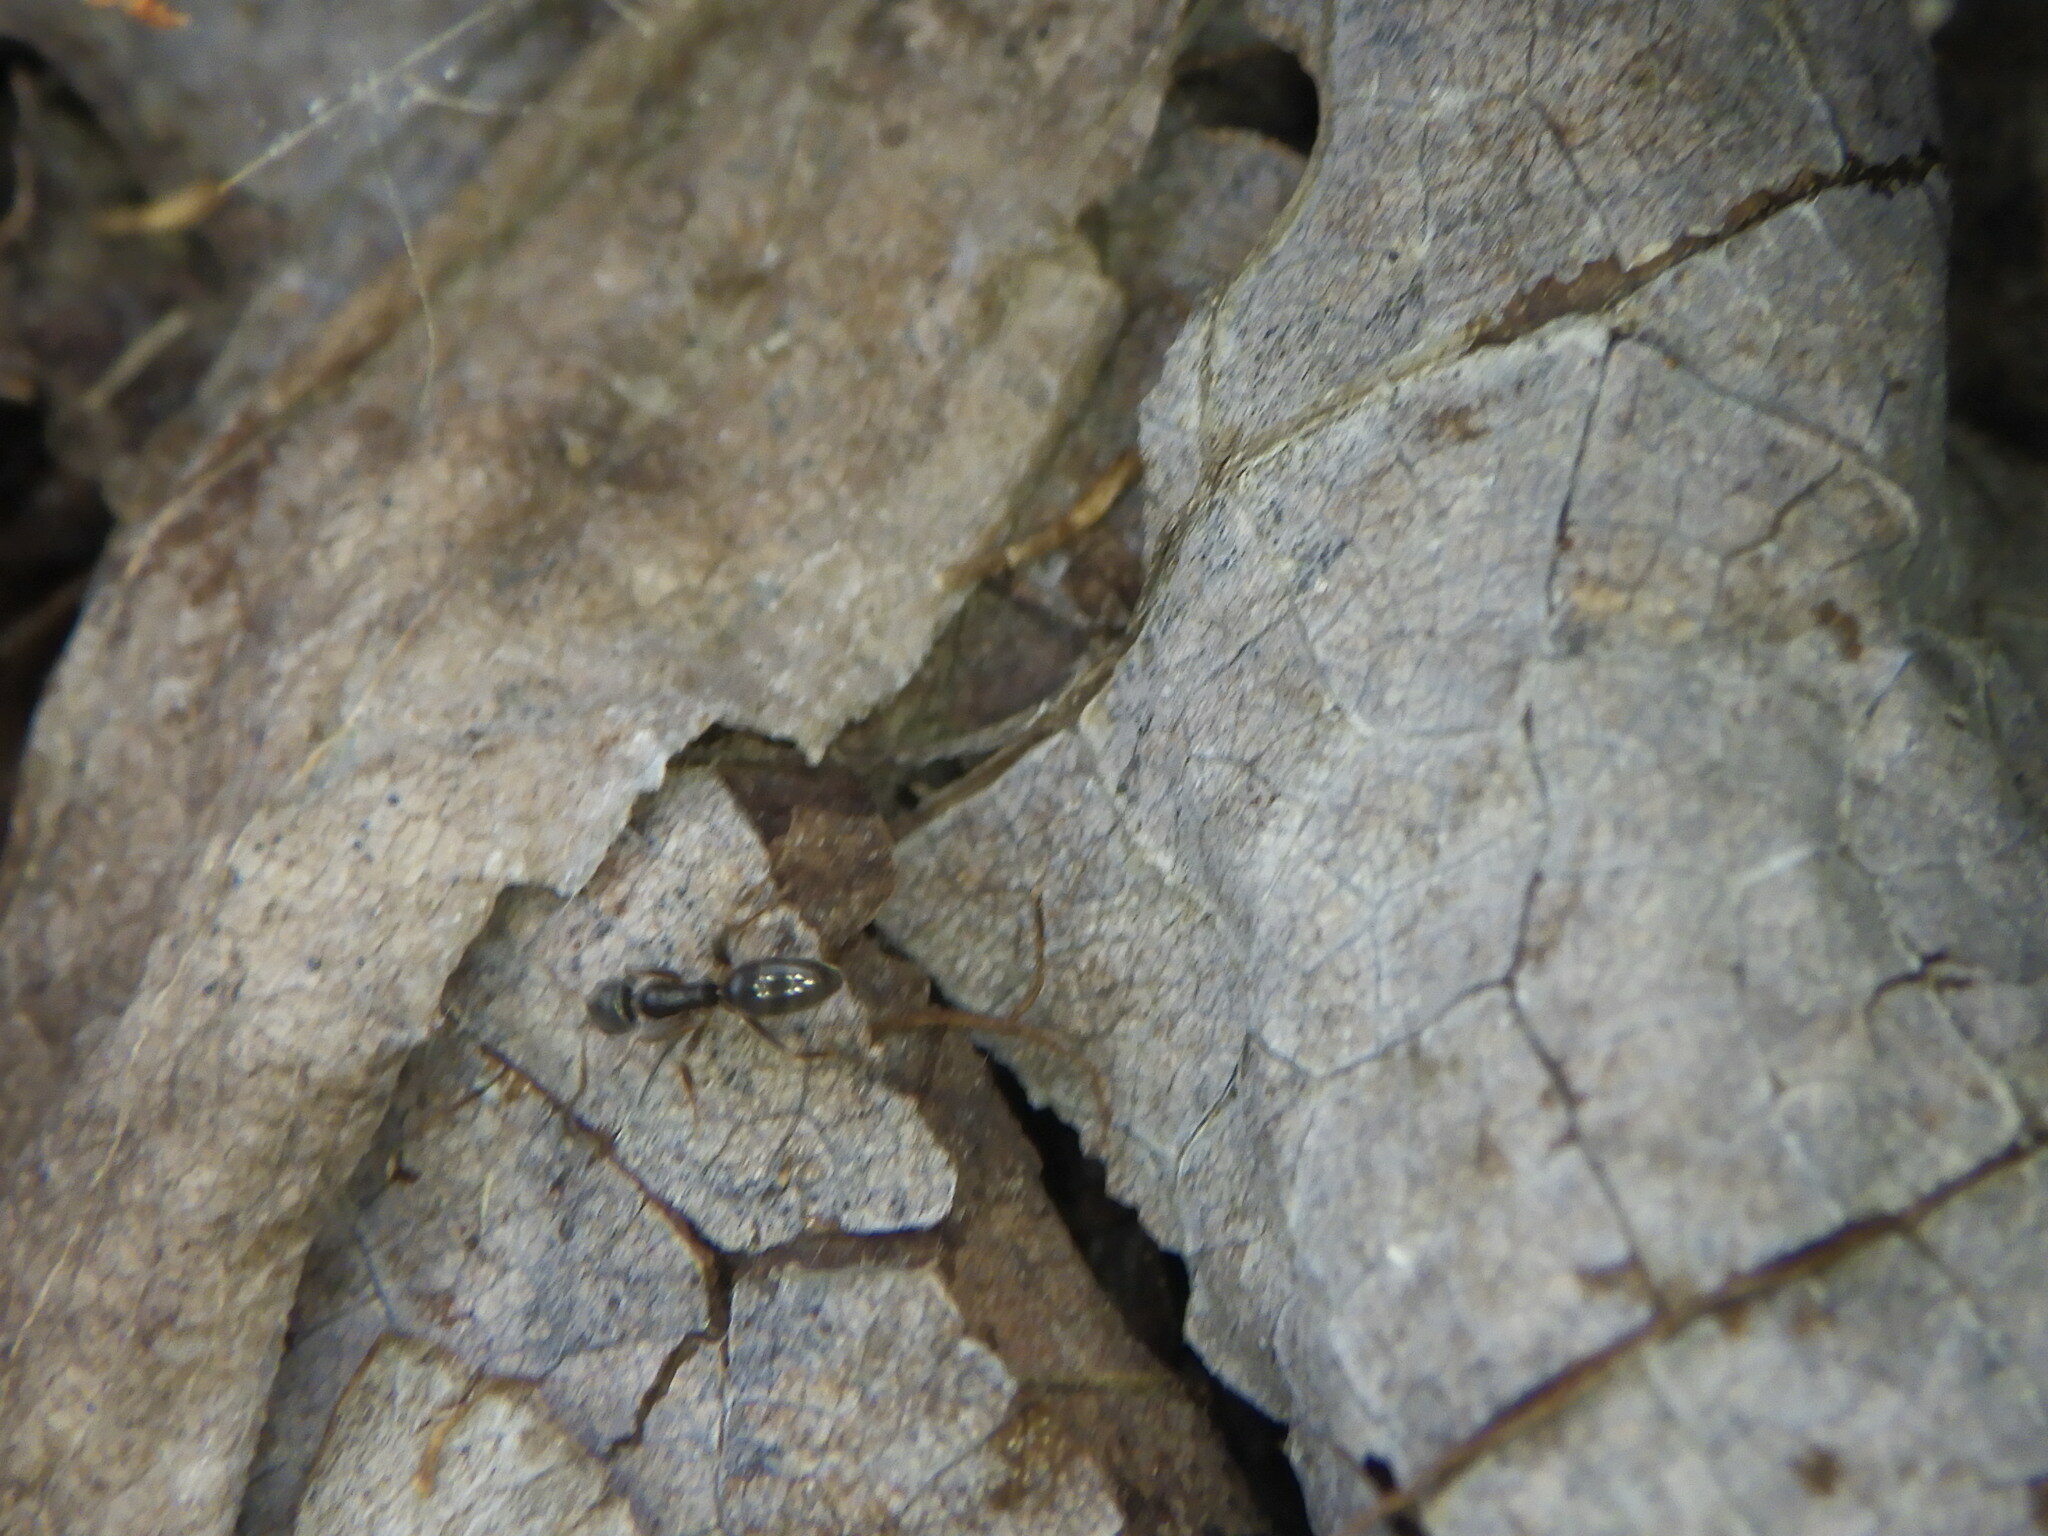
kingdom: Animalia
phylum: Arthropoda
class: Insecta
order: Hymenoptera
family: Formicidae
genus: Tapinoma
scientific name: Tapinoma sessile
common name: Odorous house ant
